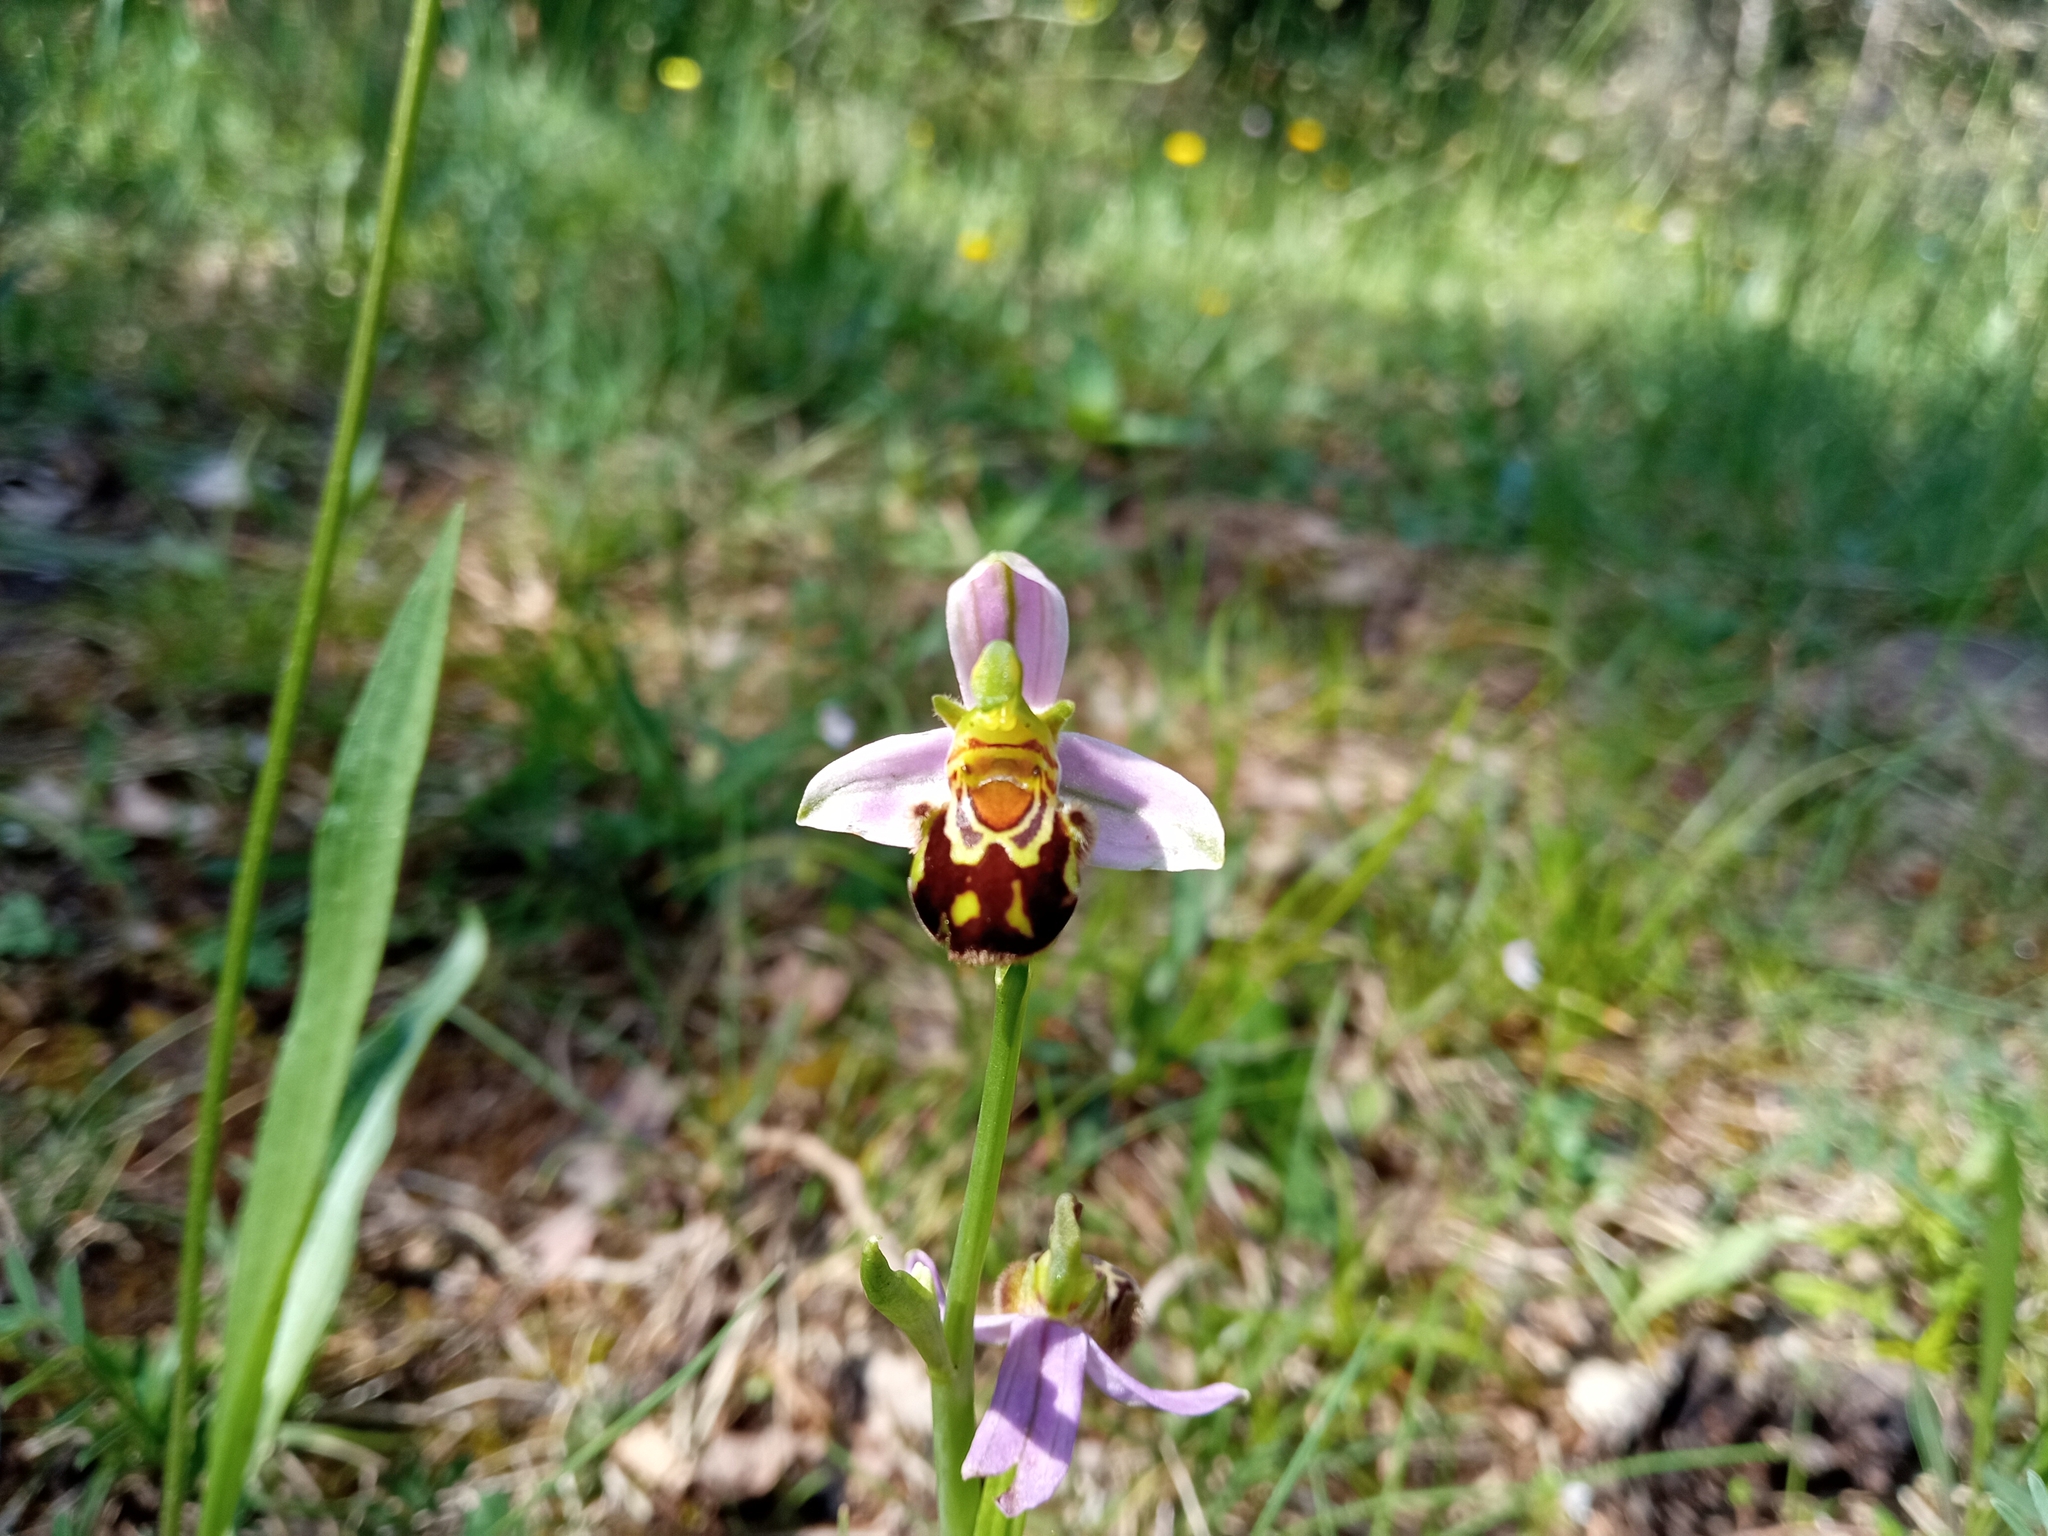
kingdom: Plantae
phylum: Tracheophyta
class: Liliopsida
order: Asparagales
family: Orchidaceae
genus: Ophrys
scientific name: Ophrys apifera
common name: Bee orchid
